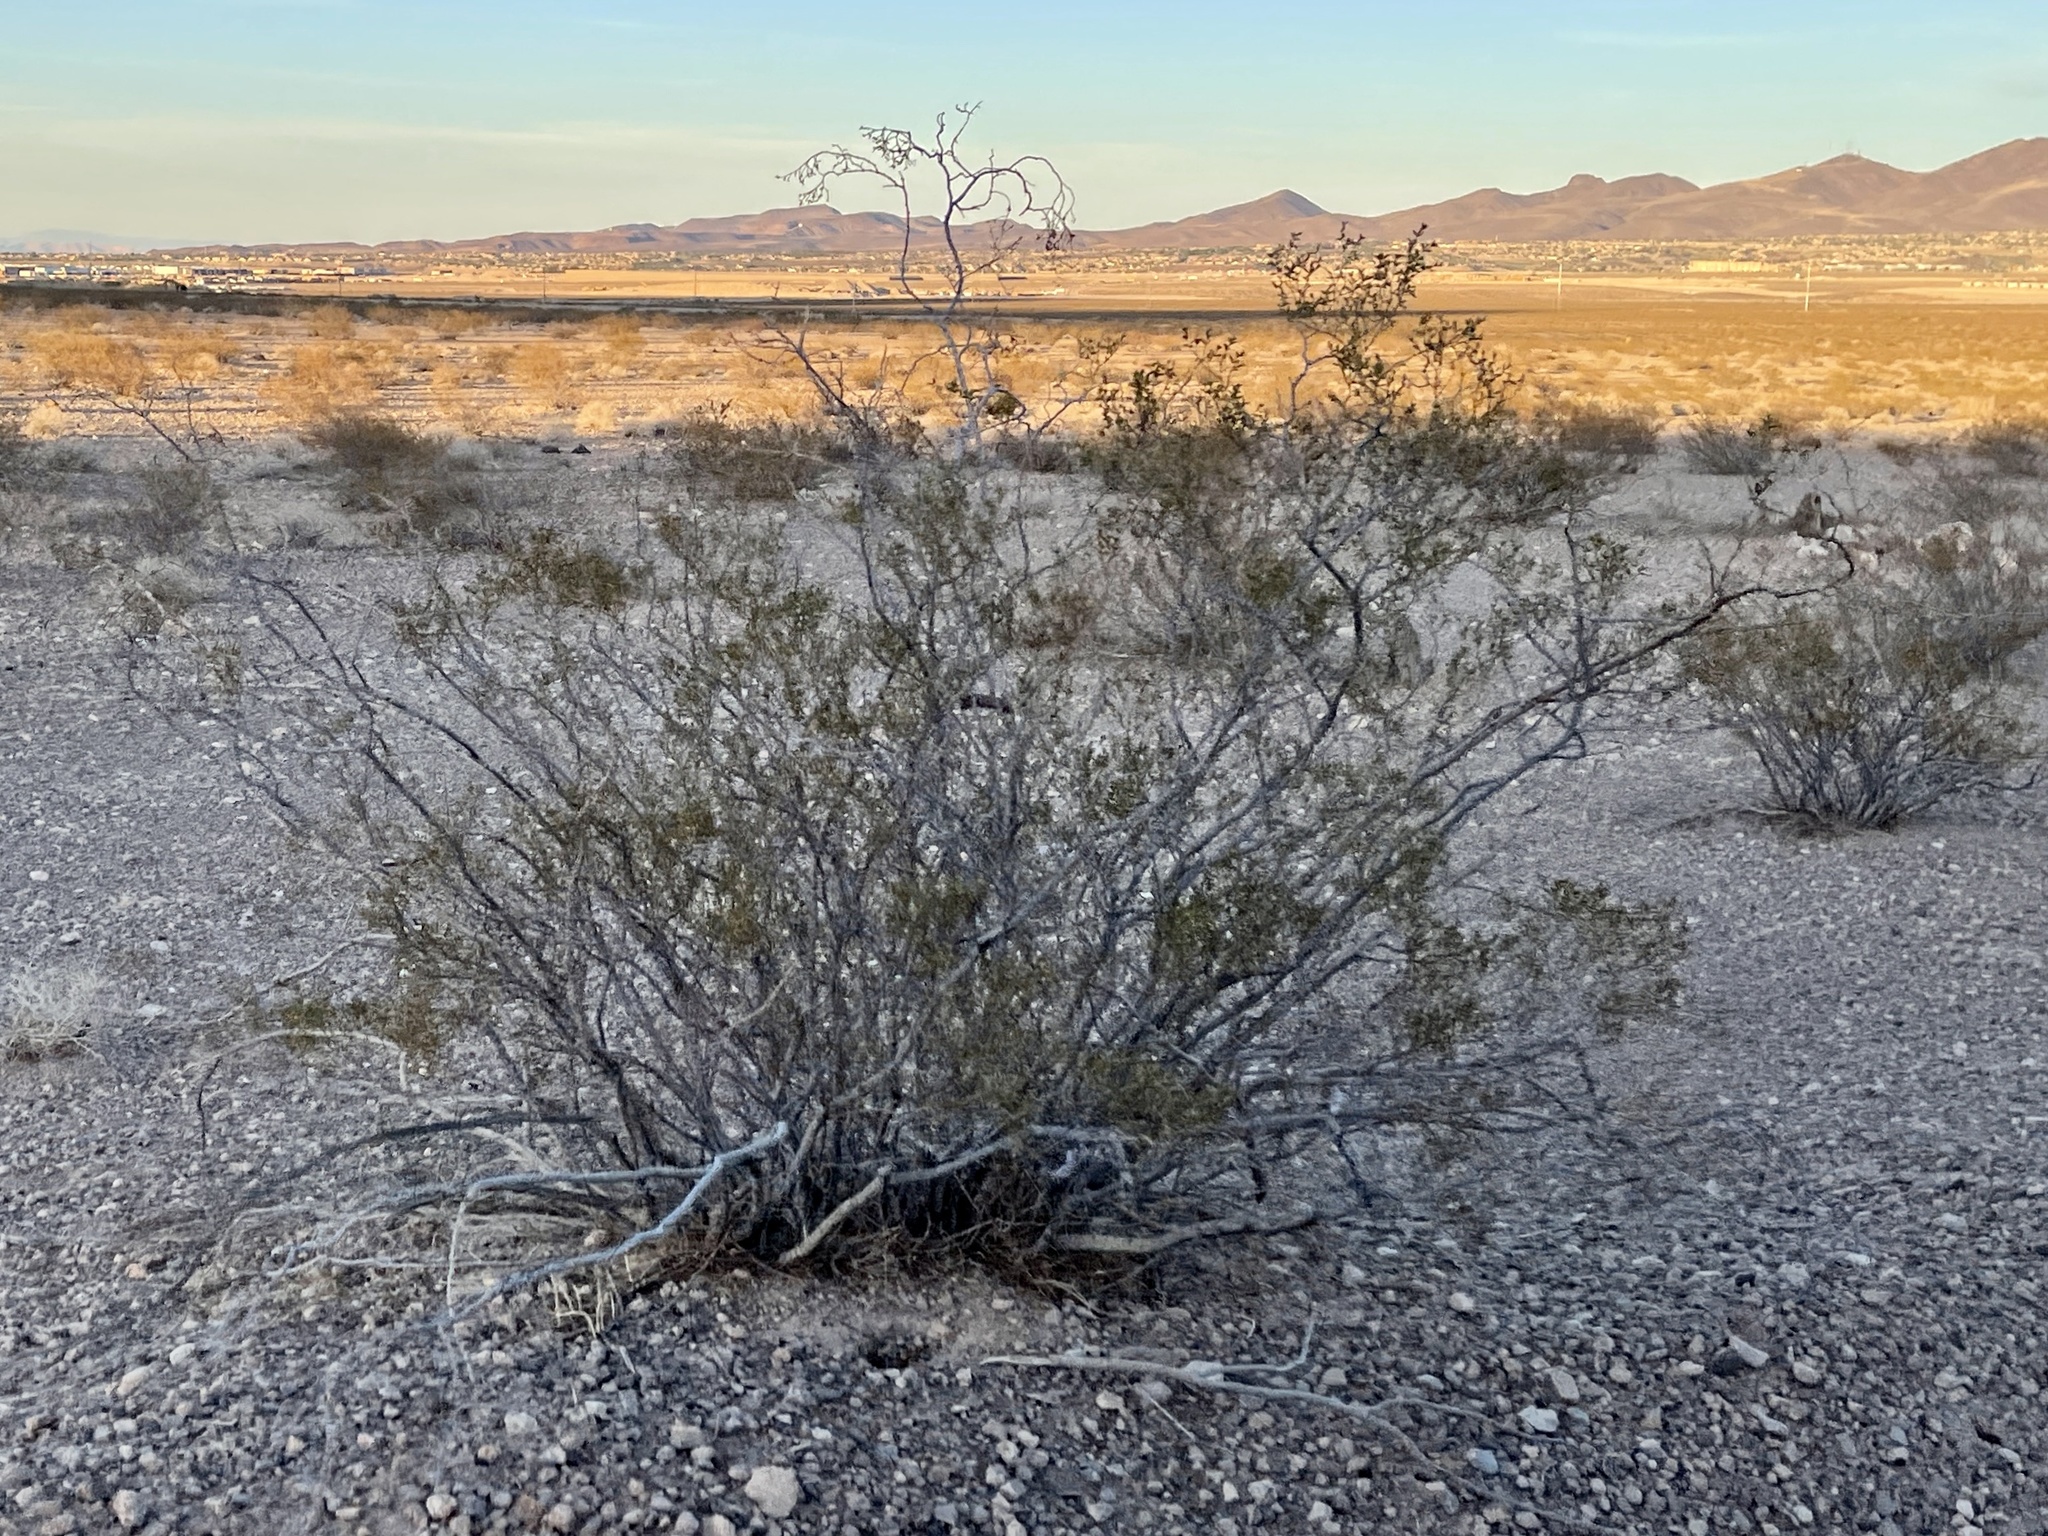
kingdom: Plantae
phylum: Tracheophyta
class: Magnoliopsida
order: Zygophyllales
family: Zygophyllaceae
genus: Larrea
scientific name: Larrea tridentata
